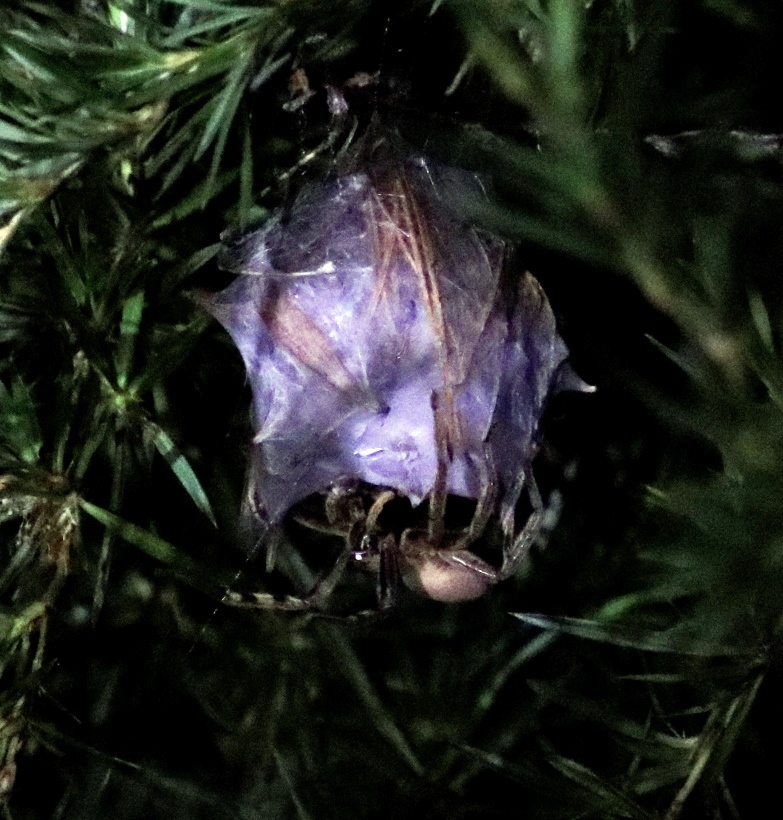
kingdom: Animalia
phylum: Arthropoda
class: Arachnida
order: Araneae
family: Sparassidae
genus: Palystes
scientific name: Palystes superciliosus
